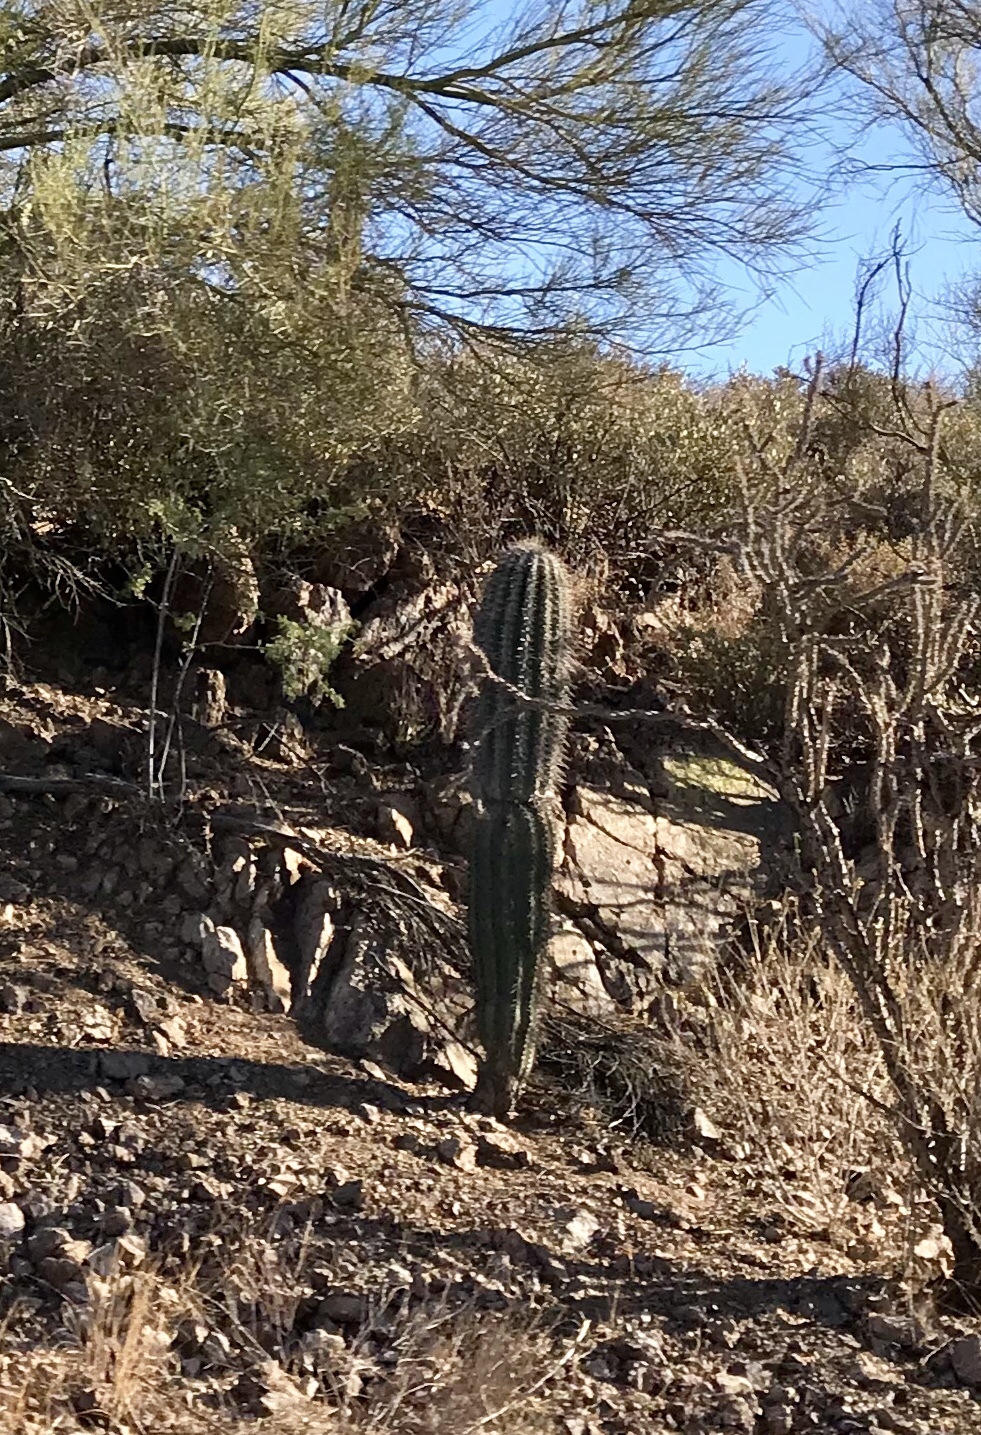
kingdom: Plantae
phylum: Tracheophyta
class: Magnoliopsida
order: Caryophyllales
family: Cactaceae
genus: Carnegiea
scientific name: Carnegiea gigantea
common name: Saguaro
